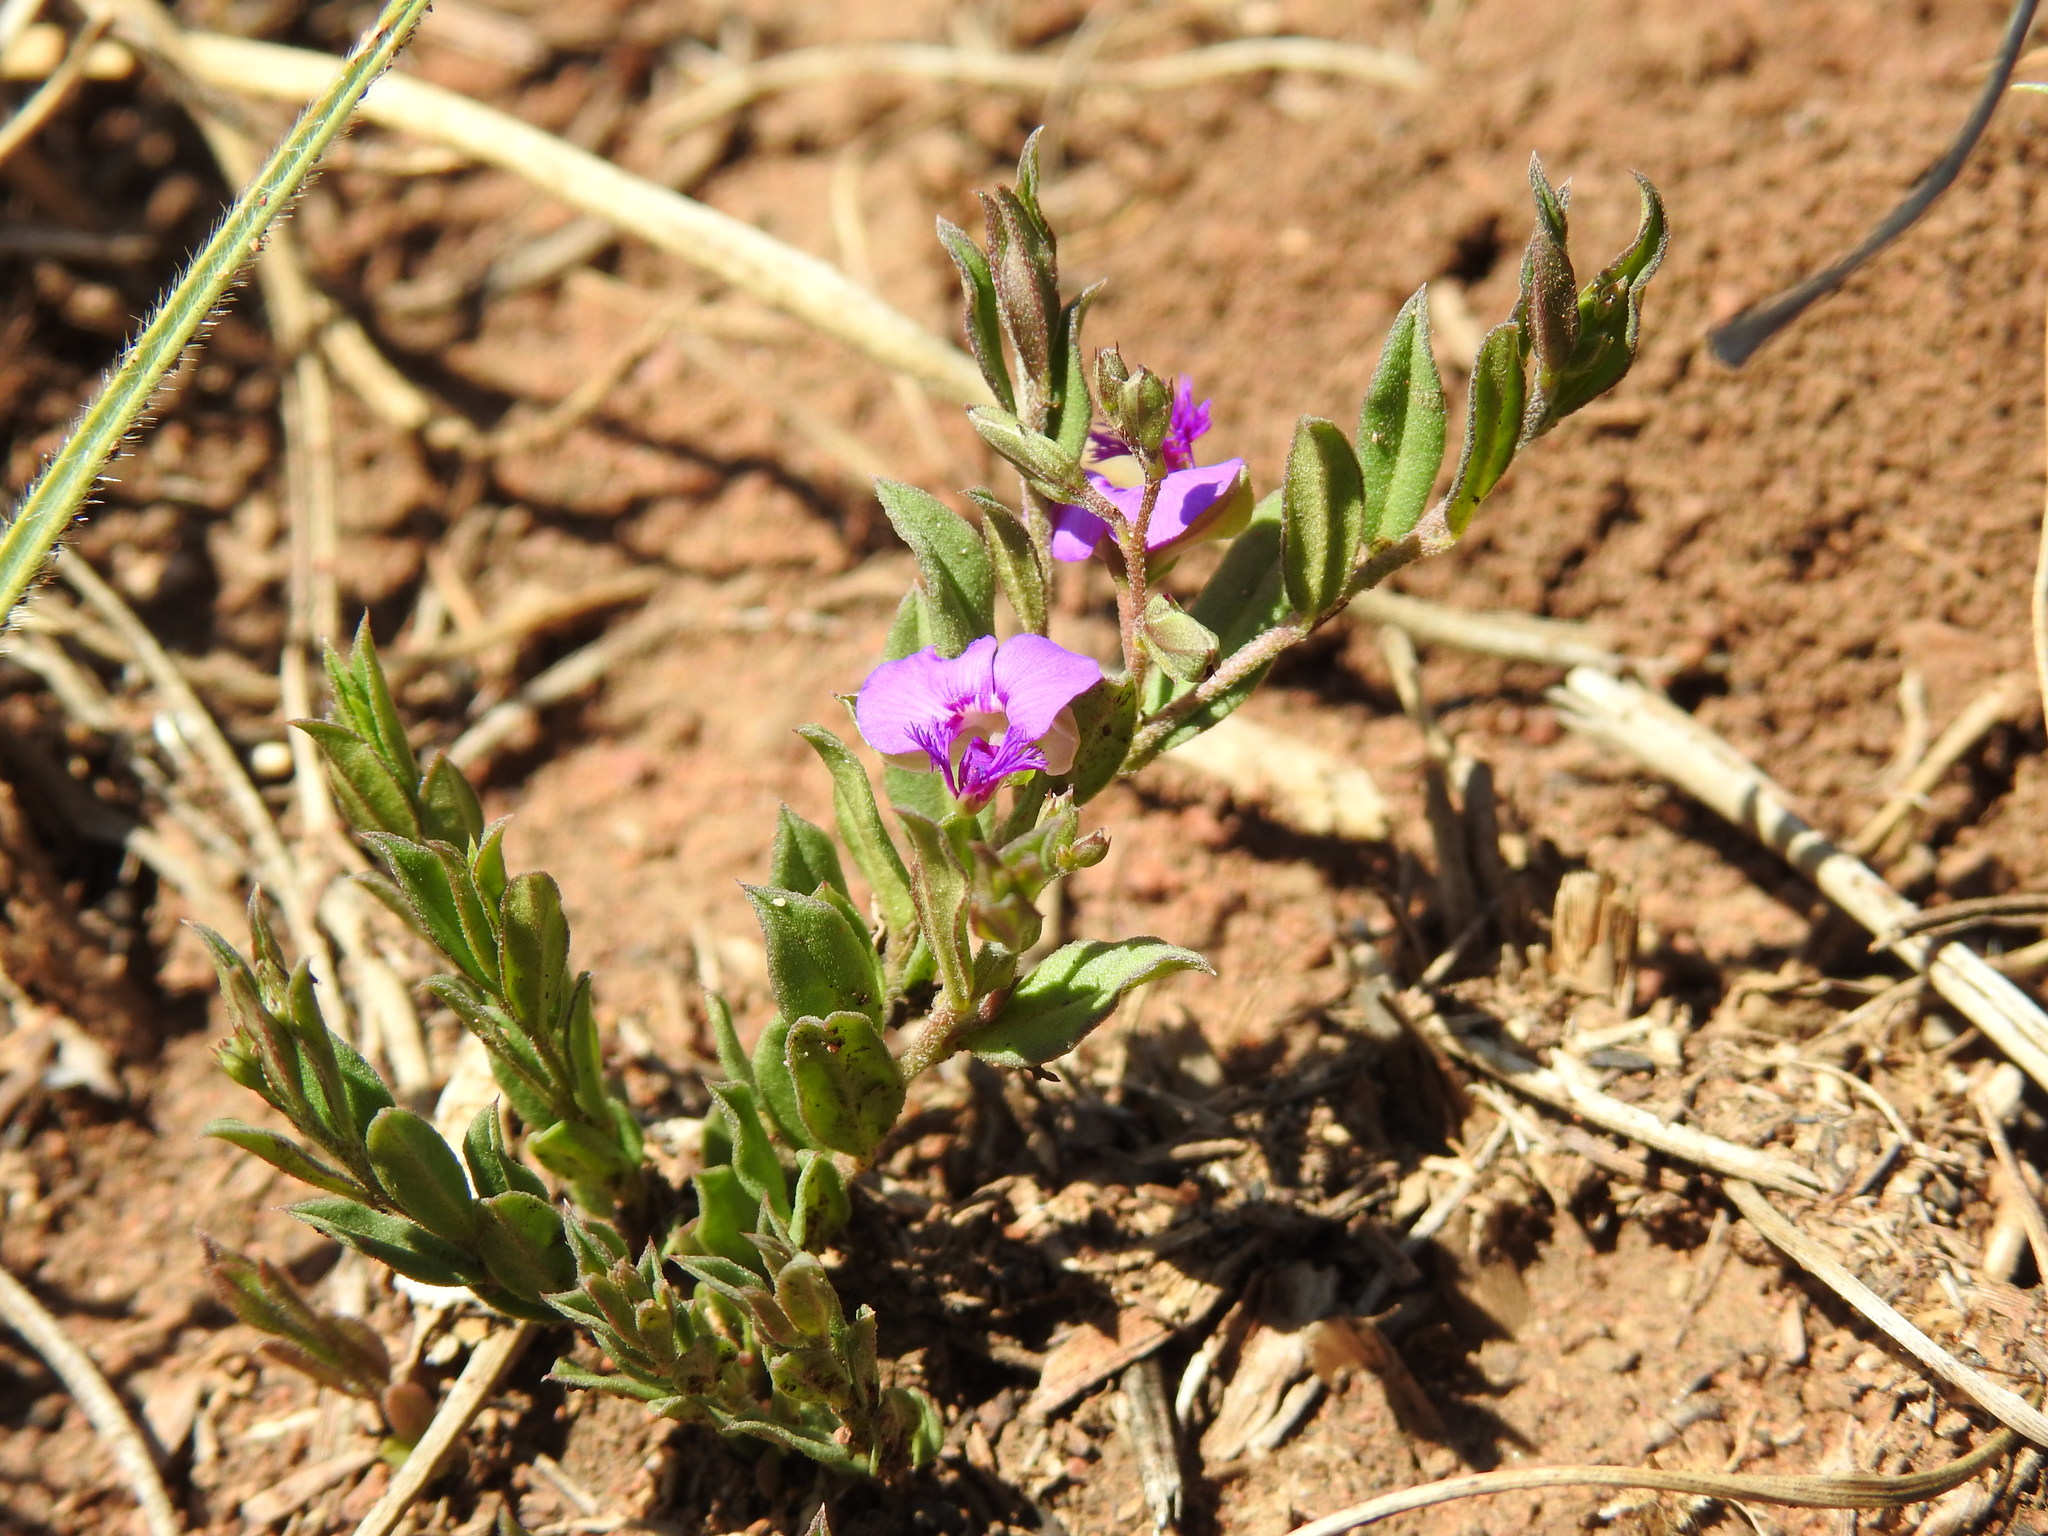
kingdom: Plantae
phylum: Tracheophyta
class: Magnoliopsida
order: Fabales
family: Polygalaceae
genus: Polygala
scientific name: Polygala uncinata
